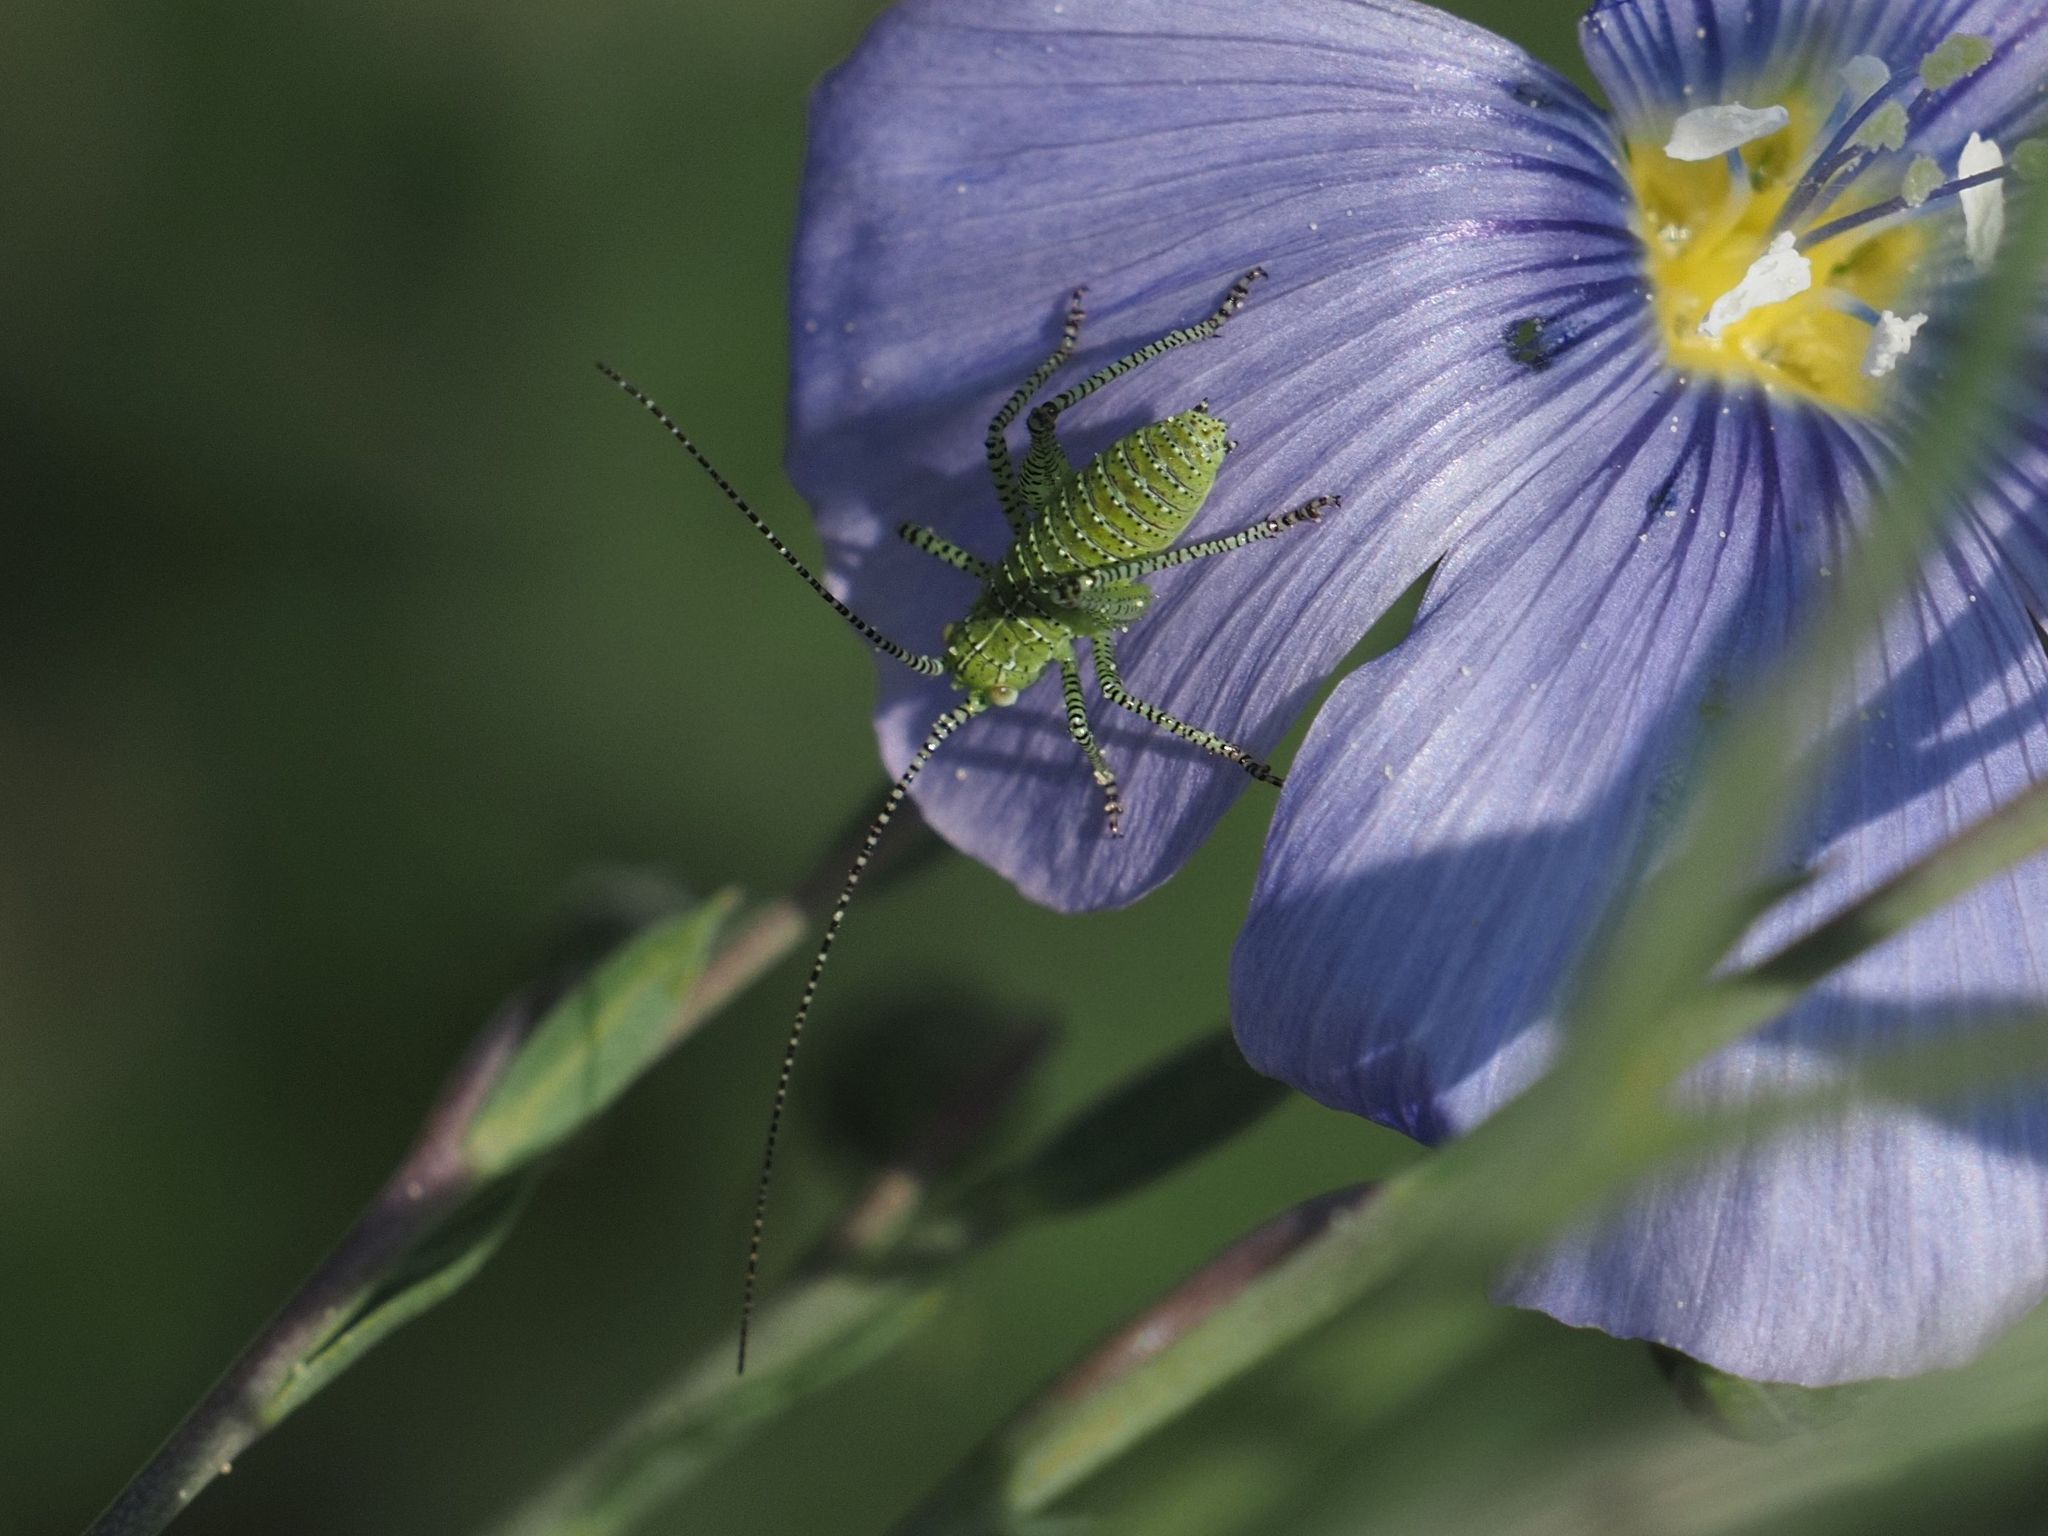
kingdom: Animalia
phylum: Arthropoda
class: Insecta
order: Orthoptera
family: Tettigoniidae
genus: Leptophyes
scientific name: Leptophyes albovittata
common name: Striped bush-cricket
